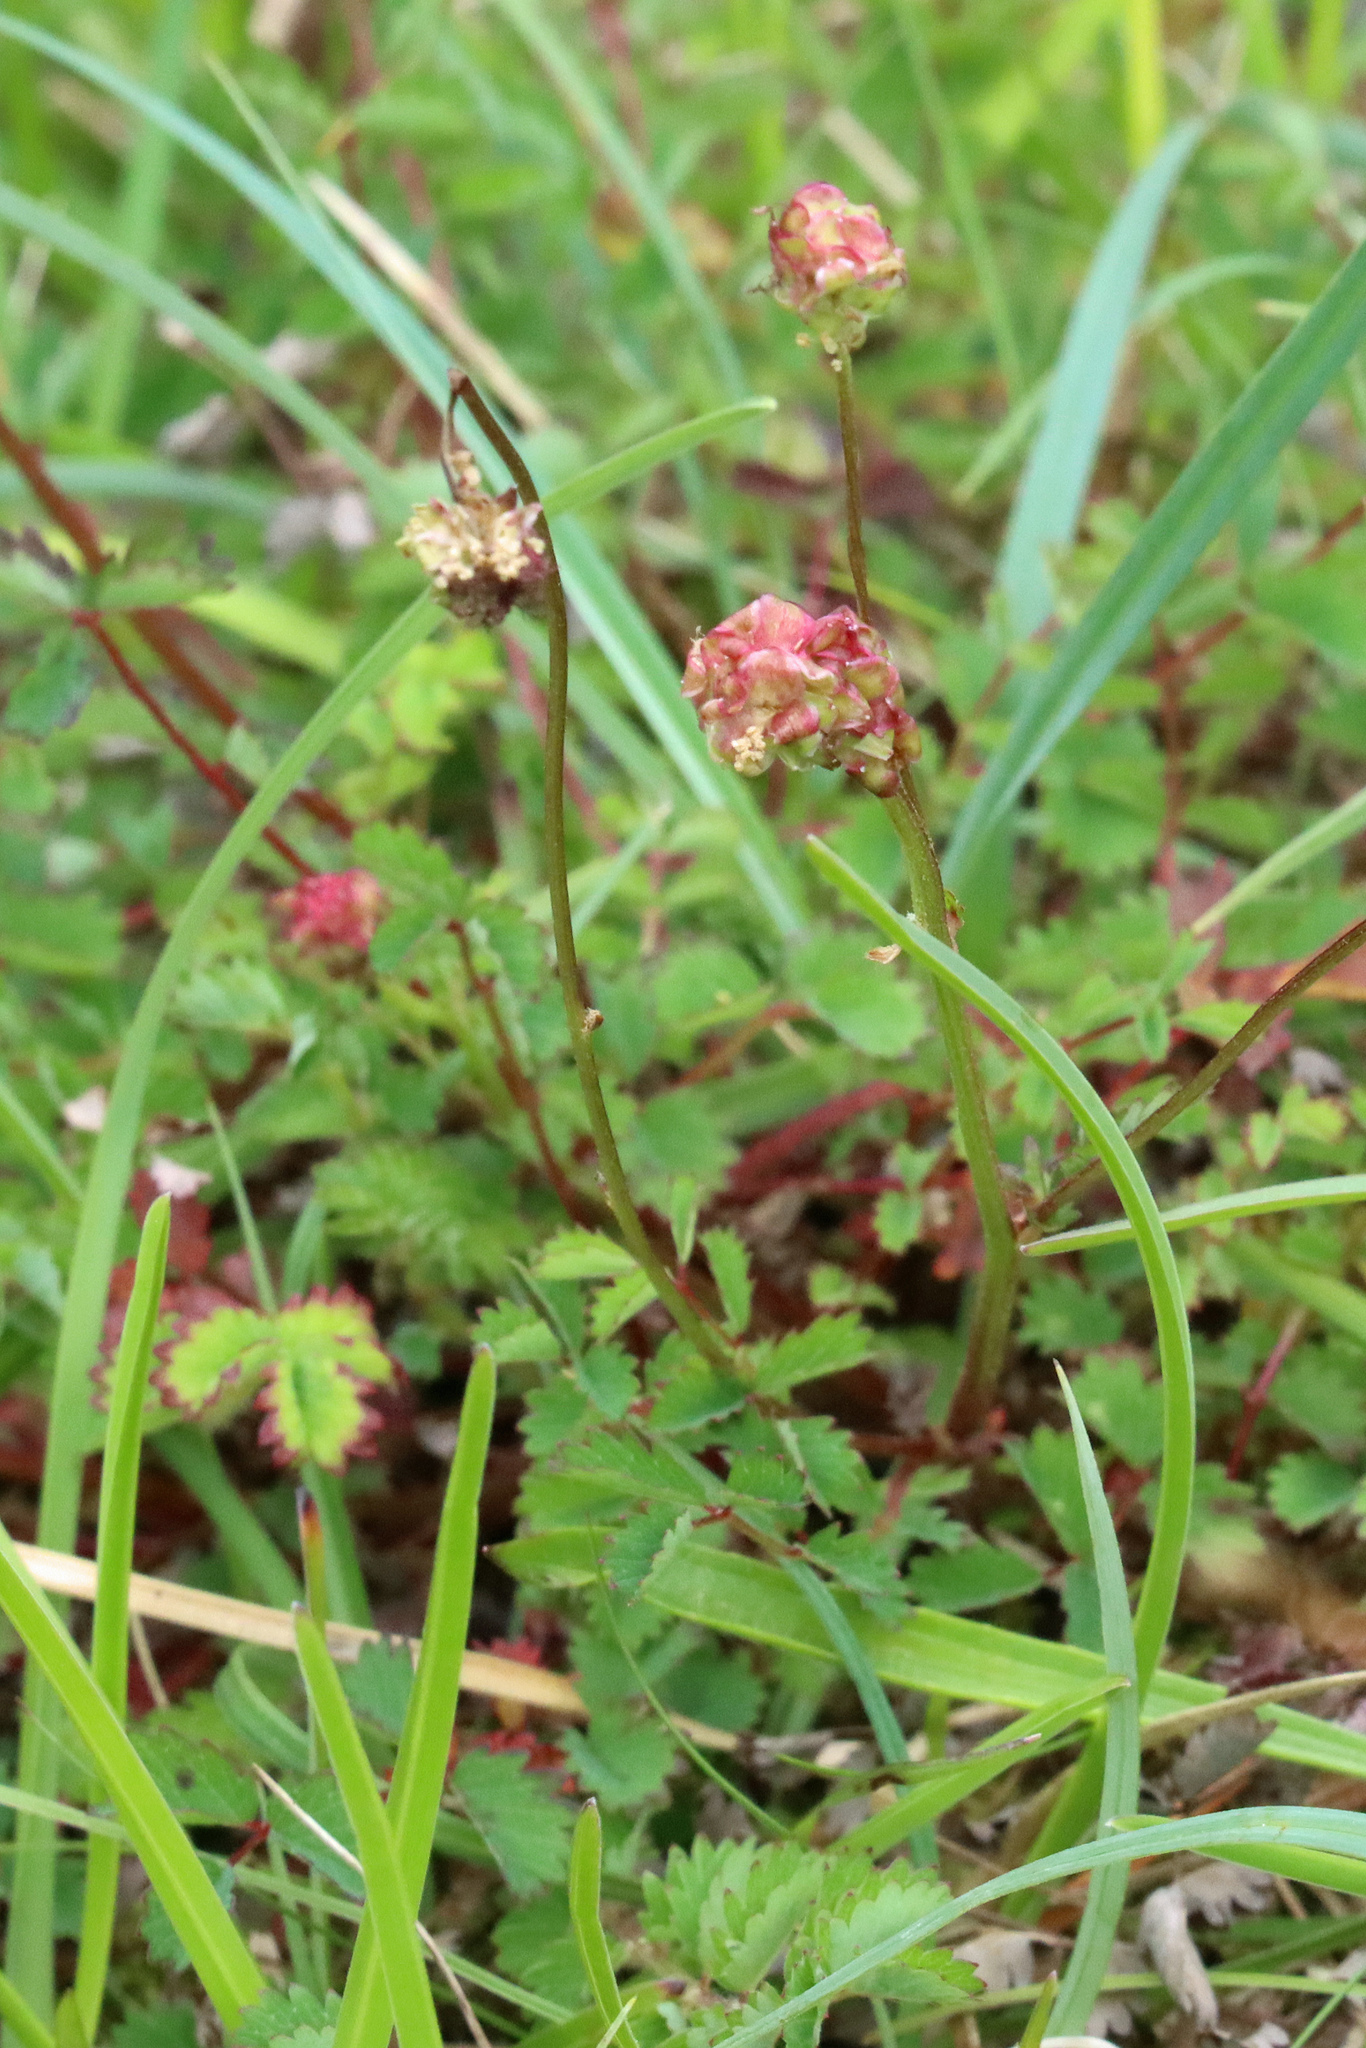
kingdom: Plantae
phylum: Tracheophyta
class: Magnoliopsida
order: Rosales
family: Rosaceae
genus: Poterium
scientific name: Poterium sanguisorba
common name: Salad burnet
